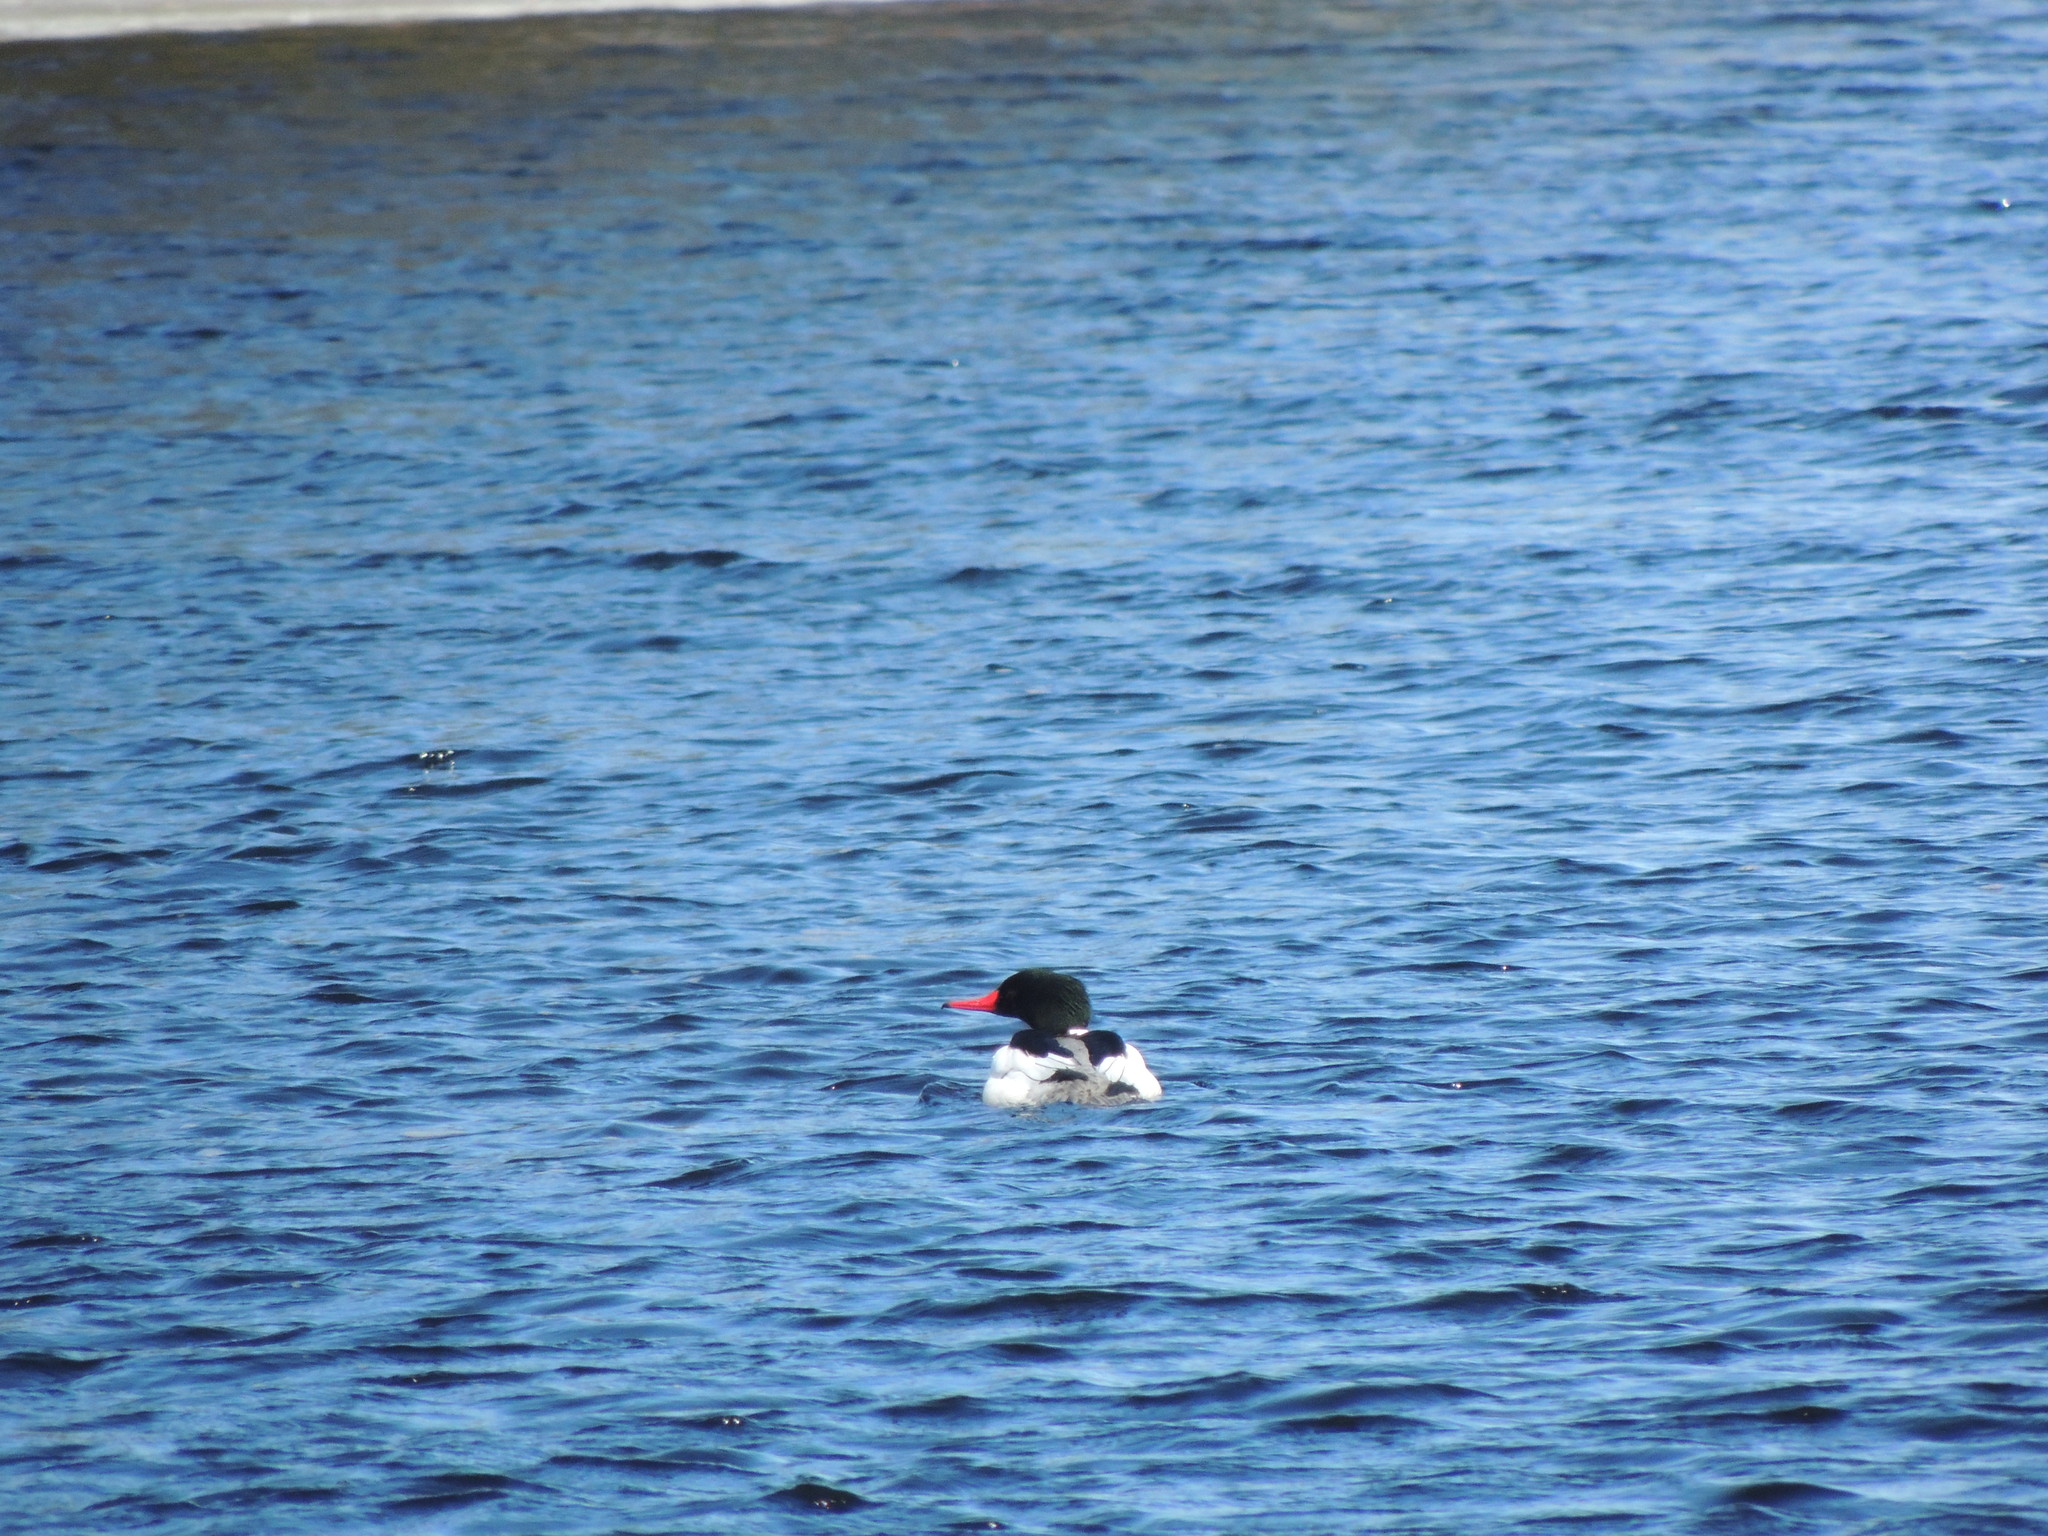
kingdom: Animalia
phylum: Chordata
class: Aves
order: Anseriformes
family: Anatidae
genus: Mergus
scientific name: Mergus merganser
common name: Common merganser
